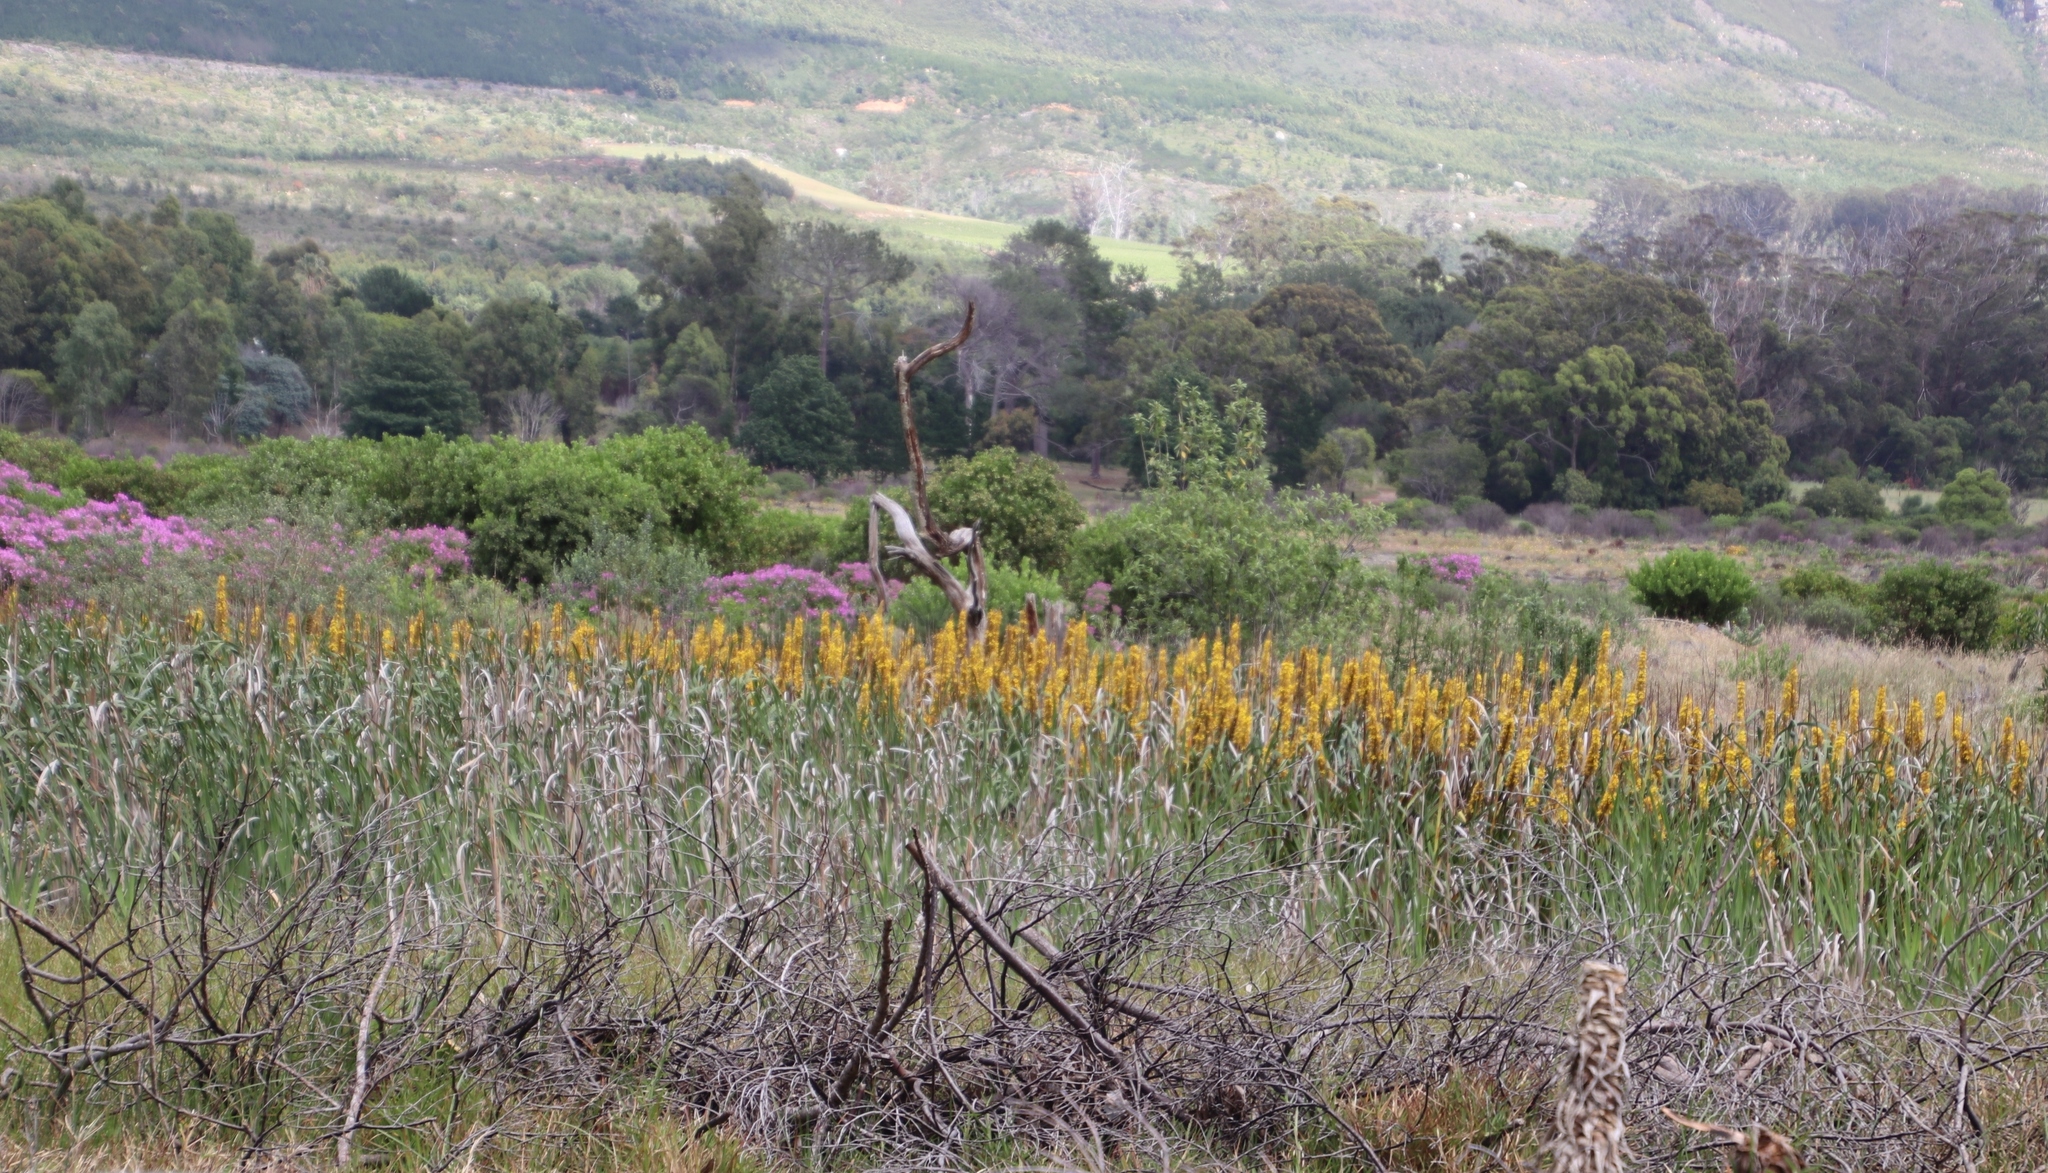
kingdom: Plantae
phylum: Tracheophyta
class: Liliopsida
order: Commelinales
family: Haemodoraceae
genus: Wachendorfia
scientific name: Wachendorfia thyrsiflora
